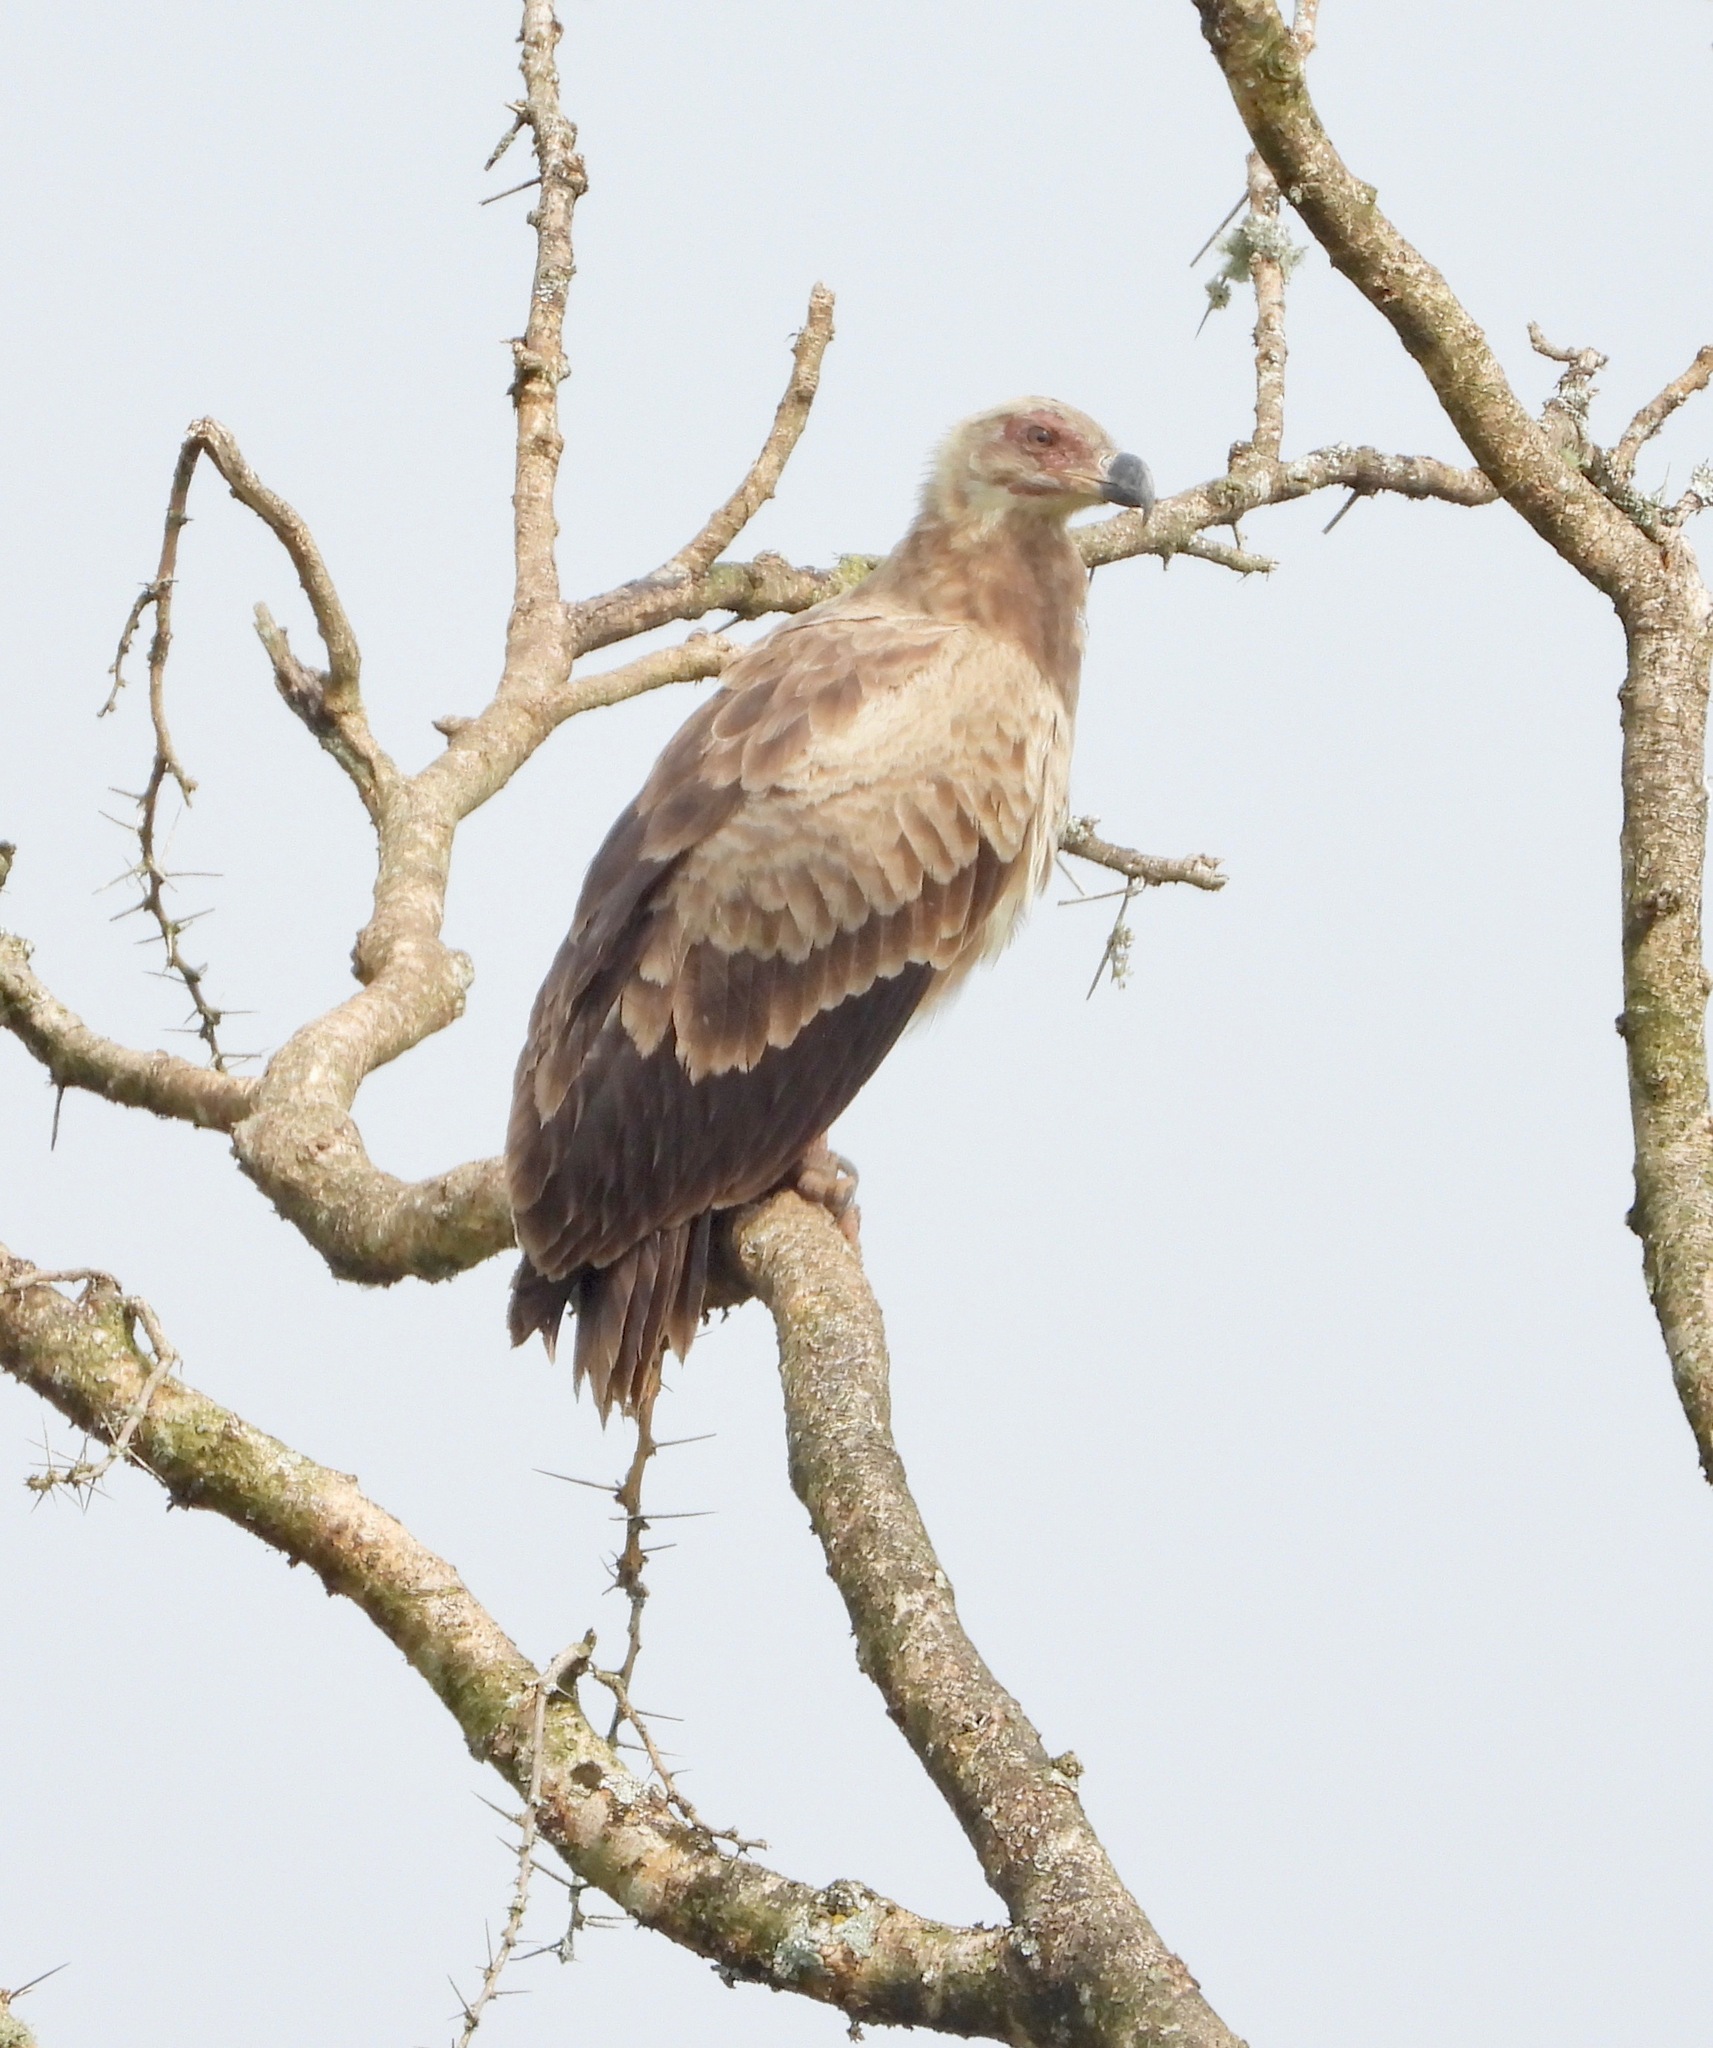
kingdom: Animalia
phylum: Chordata
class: Aves
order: Accipitriformes
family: Accipitridae
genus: Gypohierax
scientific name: Gypohierax angolensis
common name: Palm-nut vulture
